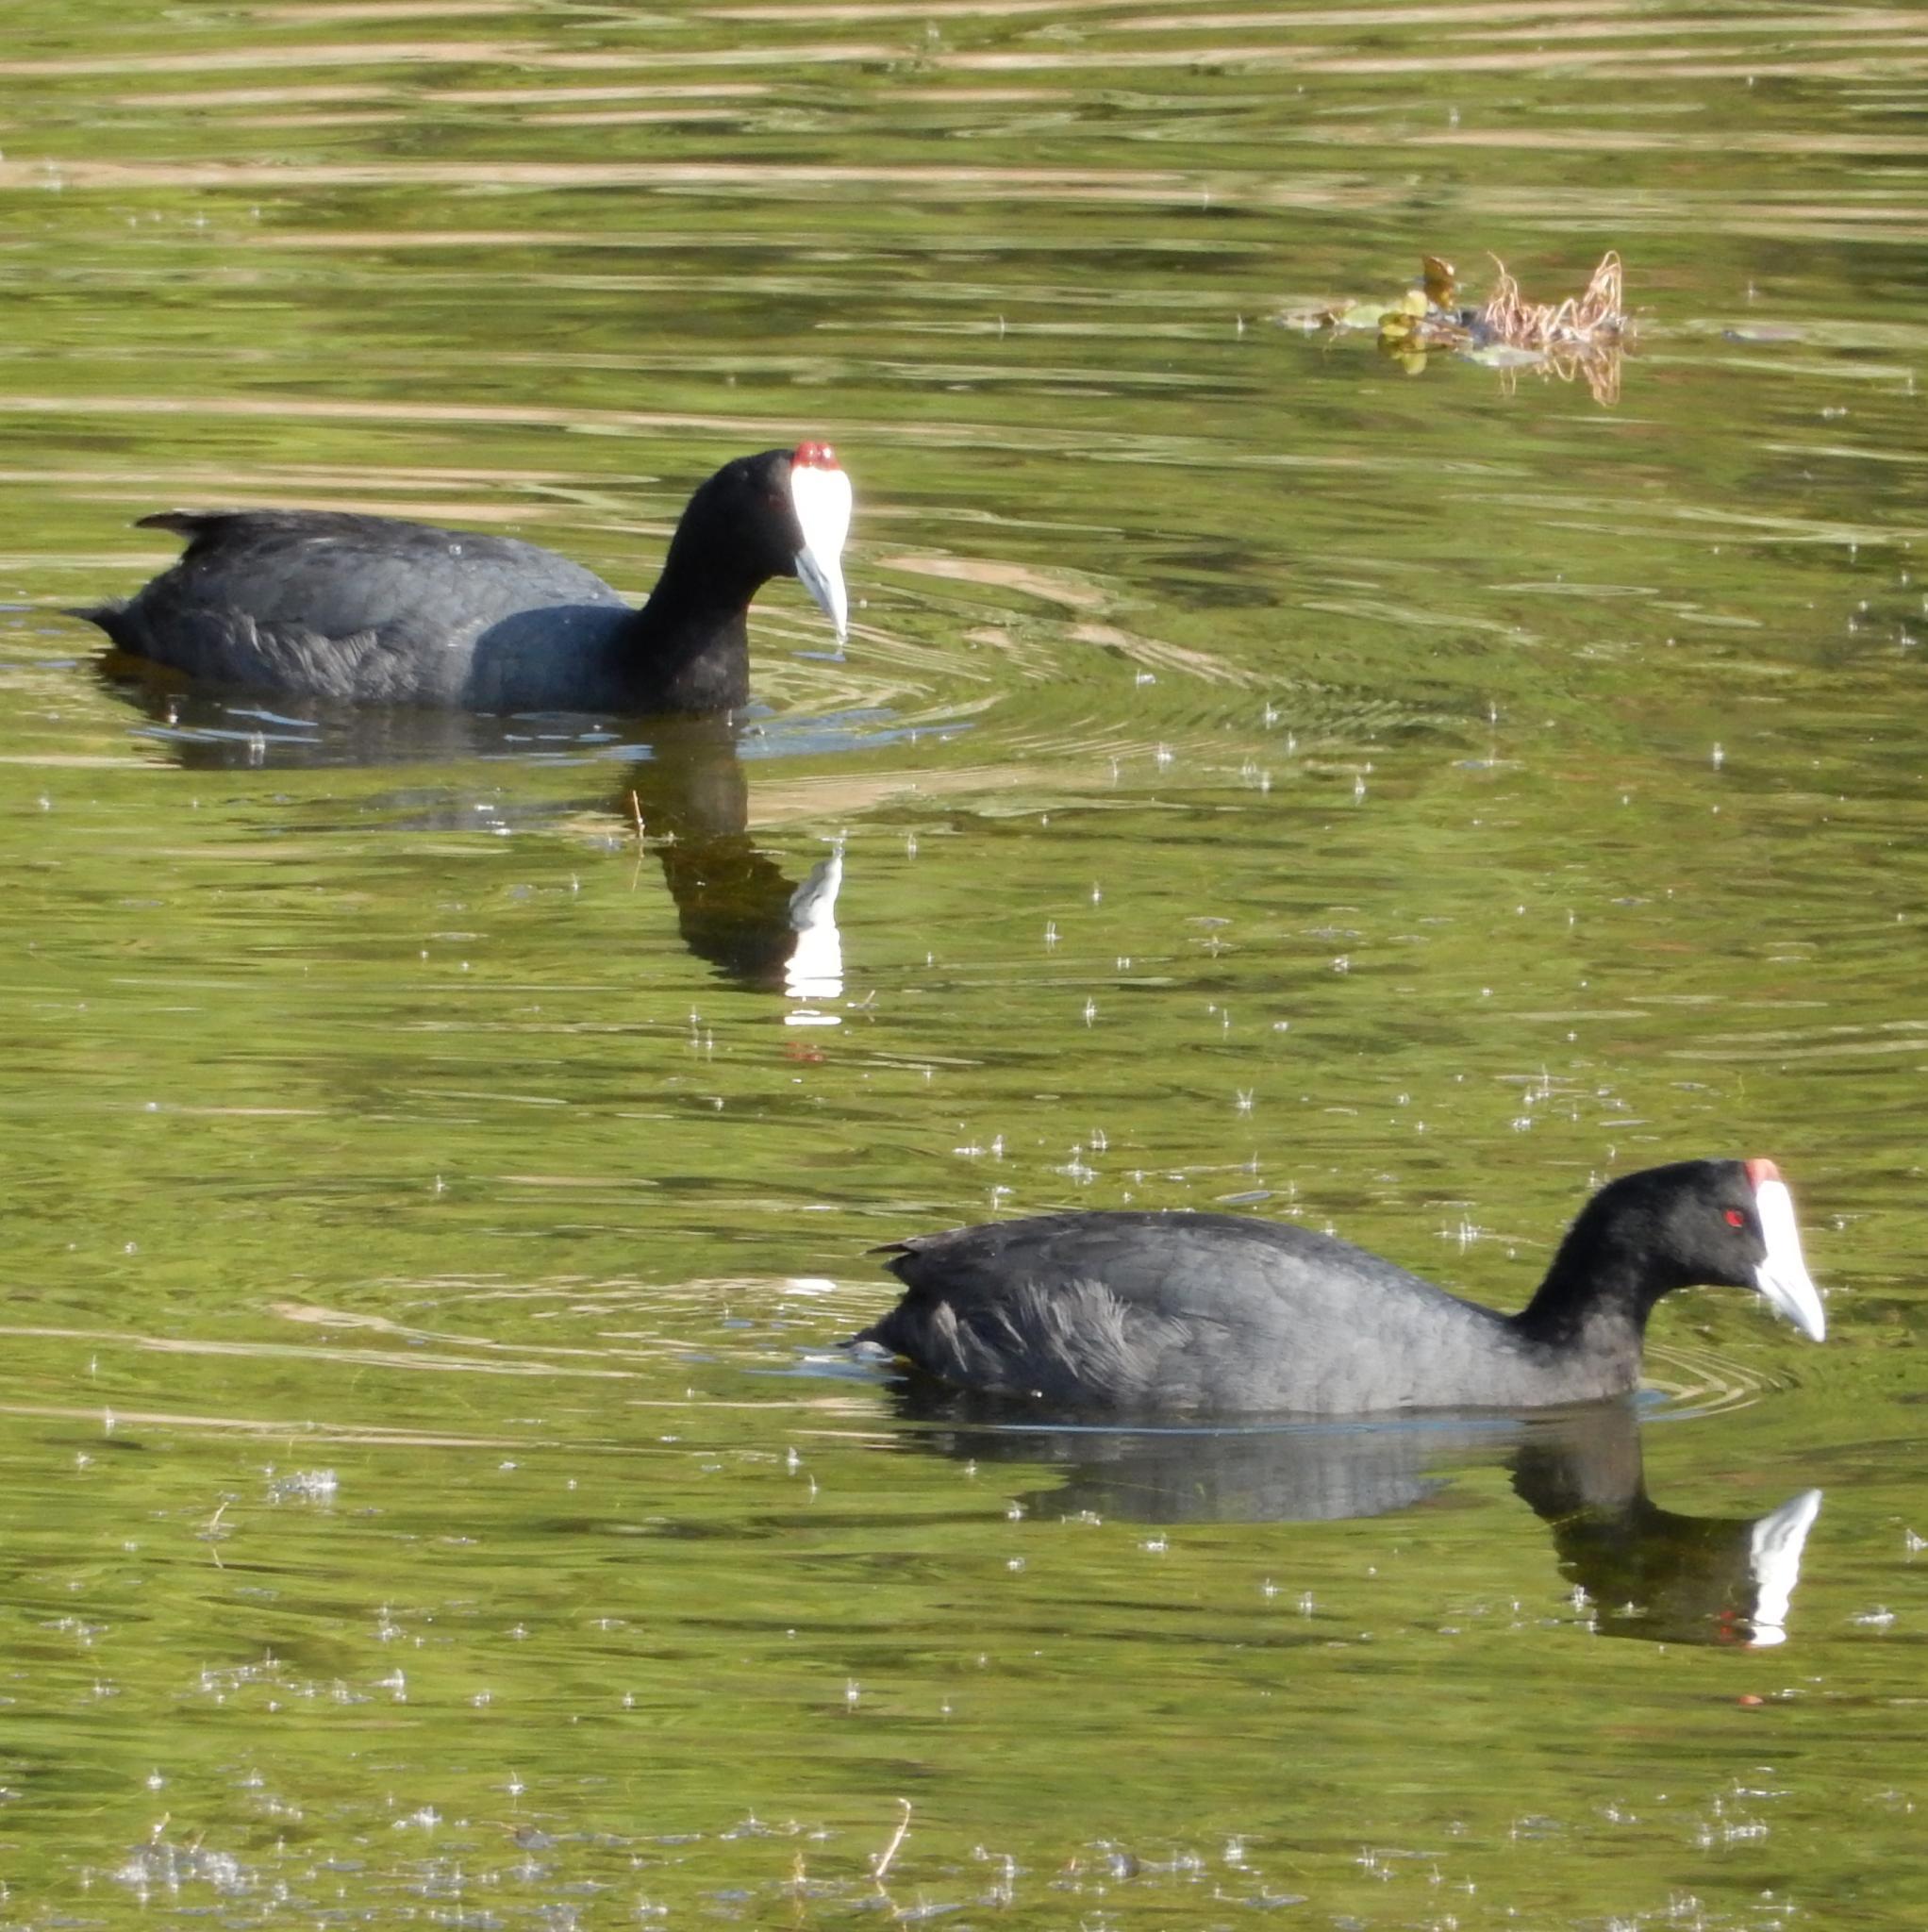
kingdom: Animalia
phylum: Chordata
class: Aves
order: Gruiformes
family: Rallidae
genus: Fulica
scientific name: Fulica cristata
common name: Red-knobbed coot
